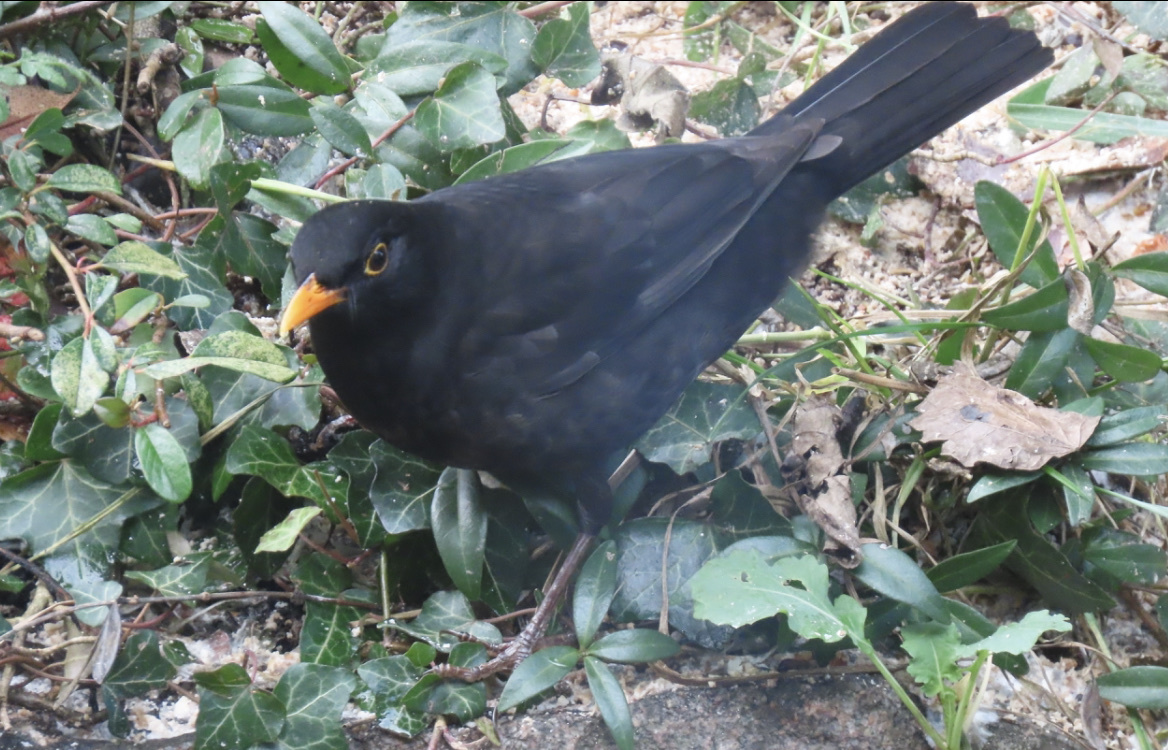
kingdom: Animalia
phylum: Chordata
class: Aves
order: Passeriformes
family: Turdidae
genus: Turdus
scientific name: Turdus merula
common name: Common blackbird
